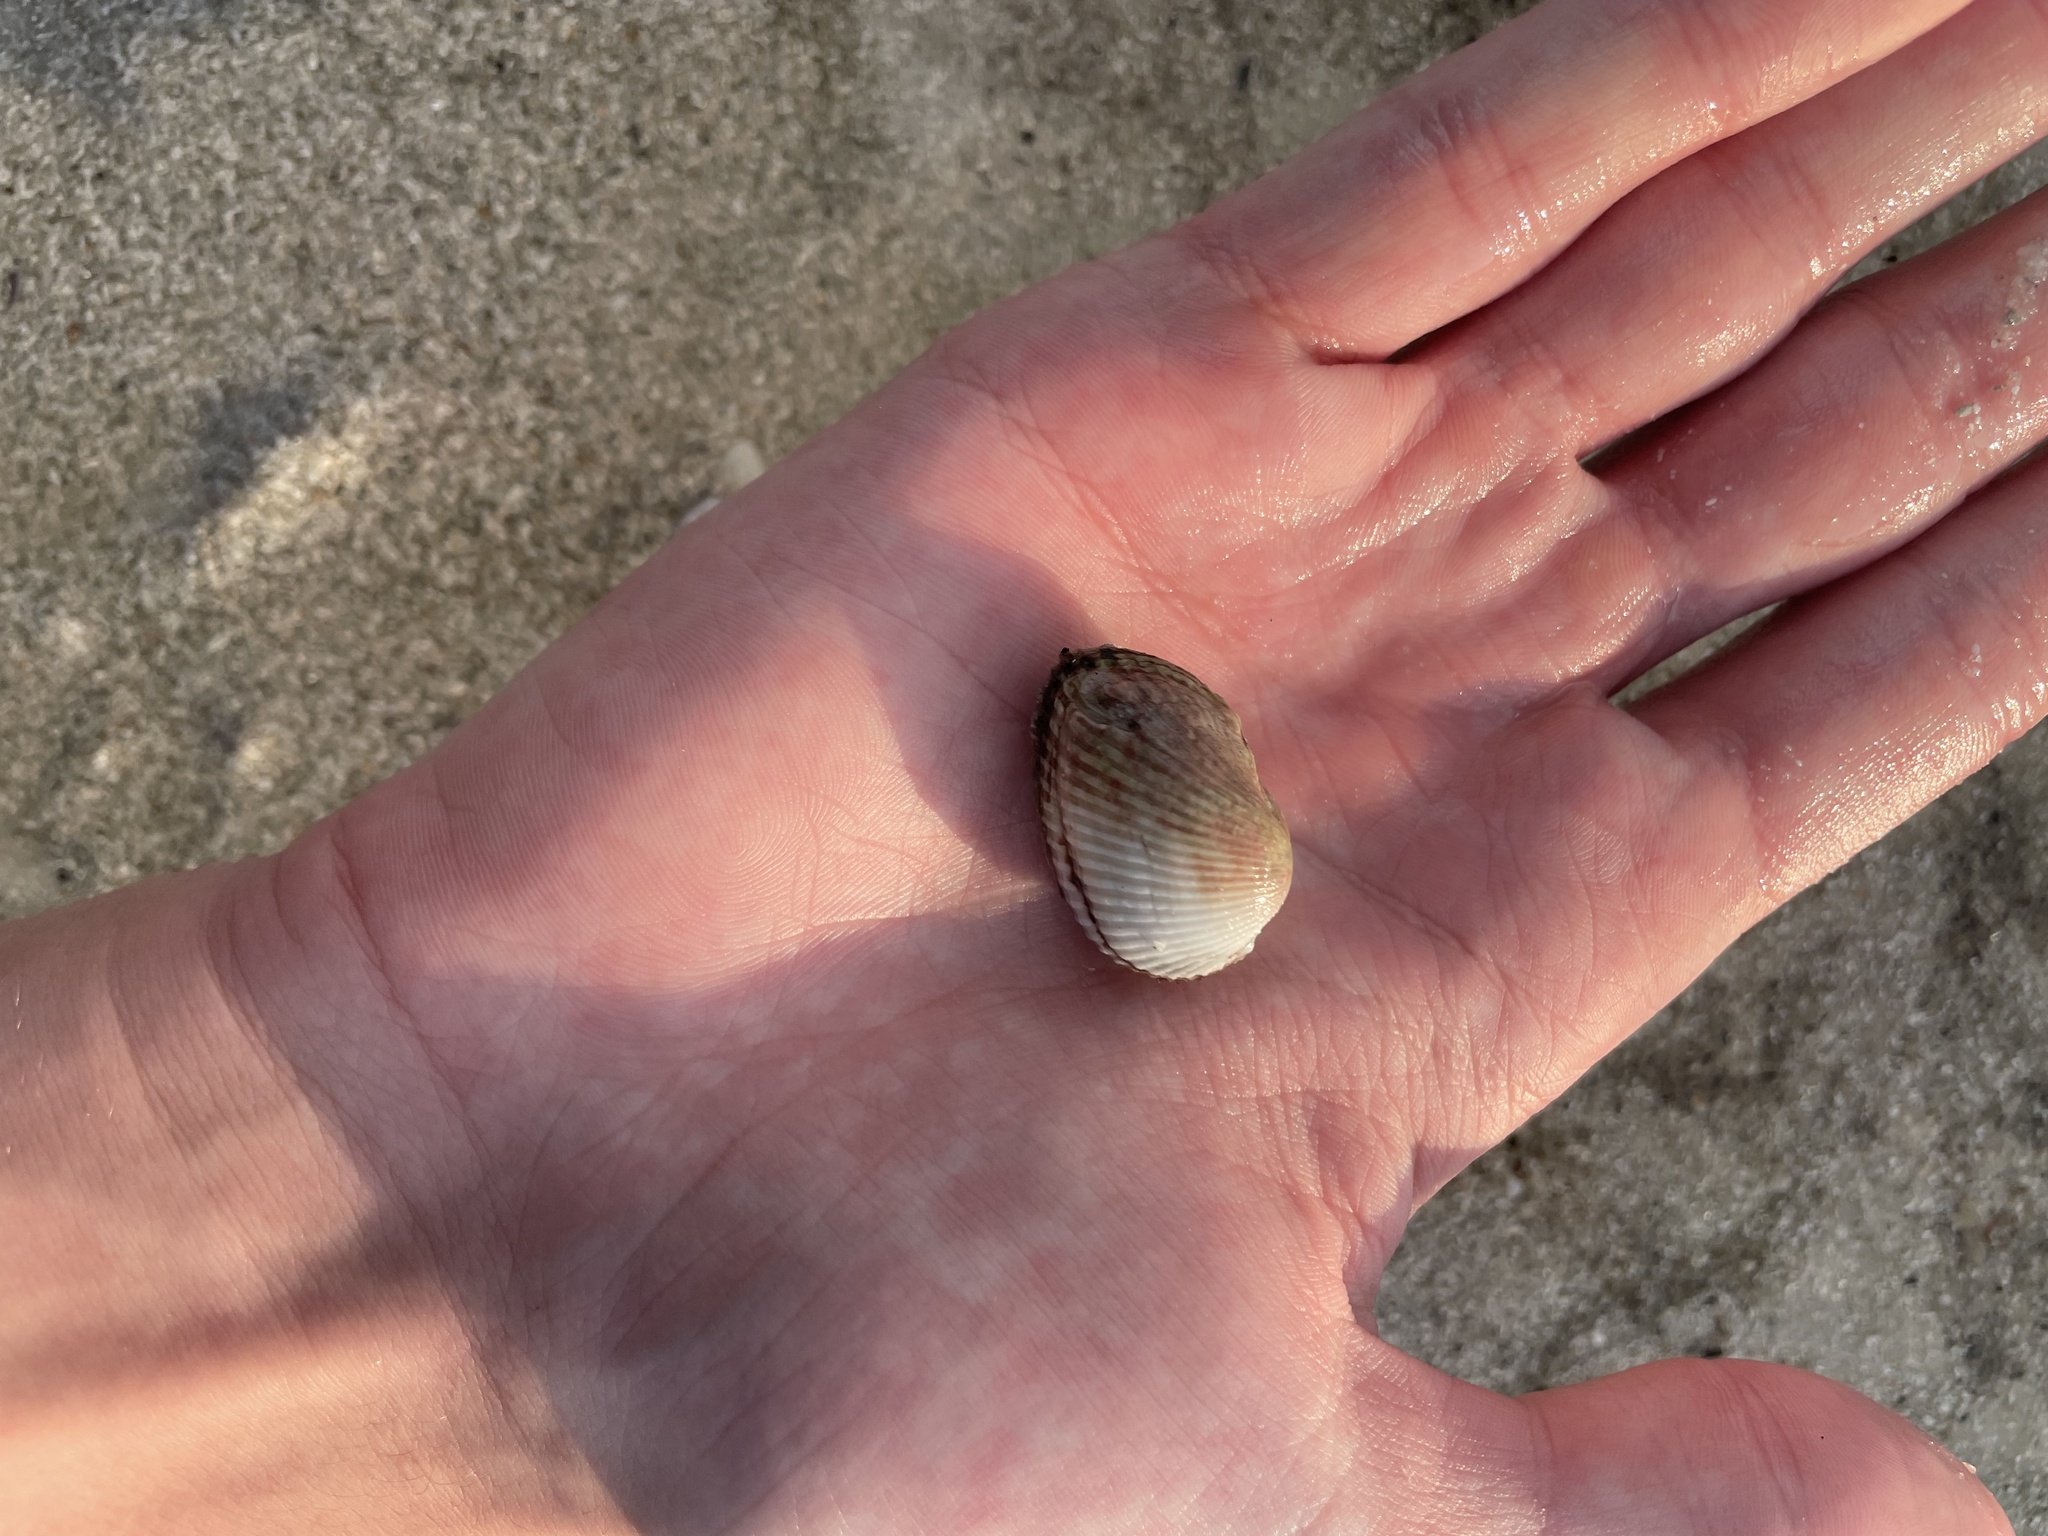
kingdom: Animalia
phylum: Mollusca
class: Bivalvia
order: Arcida
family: Arcidae
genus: Anadara
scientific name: Anadara transversa
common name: Transverse ark
